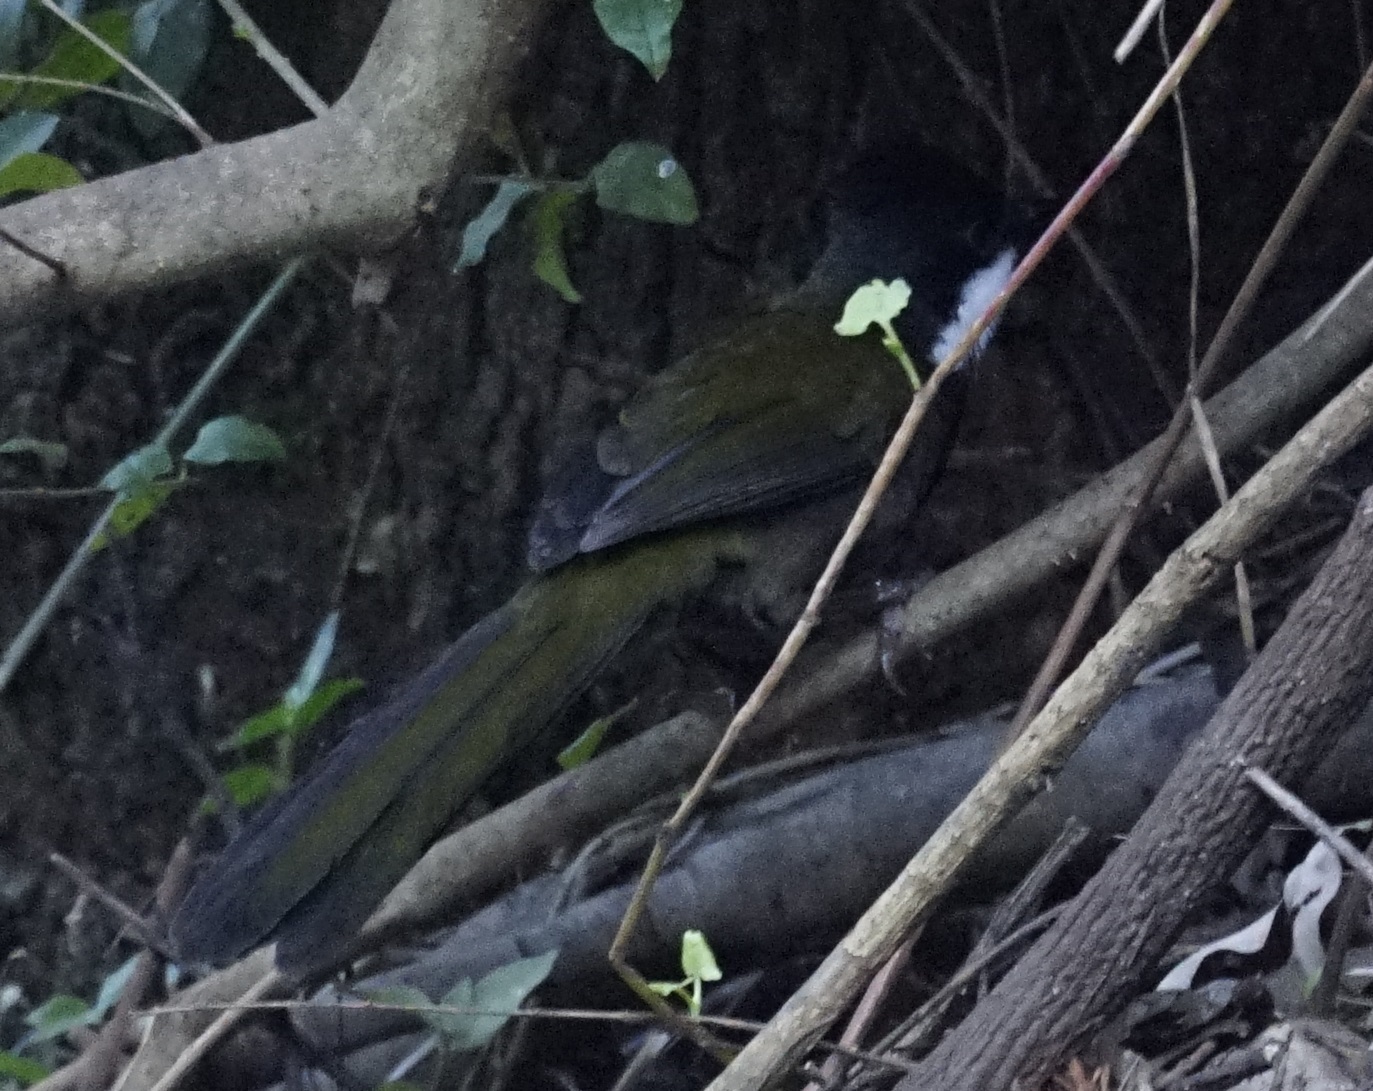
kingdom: Animalia
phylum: Chordata
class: Aves
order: Passeriformes
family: Psophodidae
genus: Psophodes
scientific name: Psophodes olivaceus
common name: Eastern whipbird
